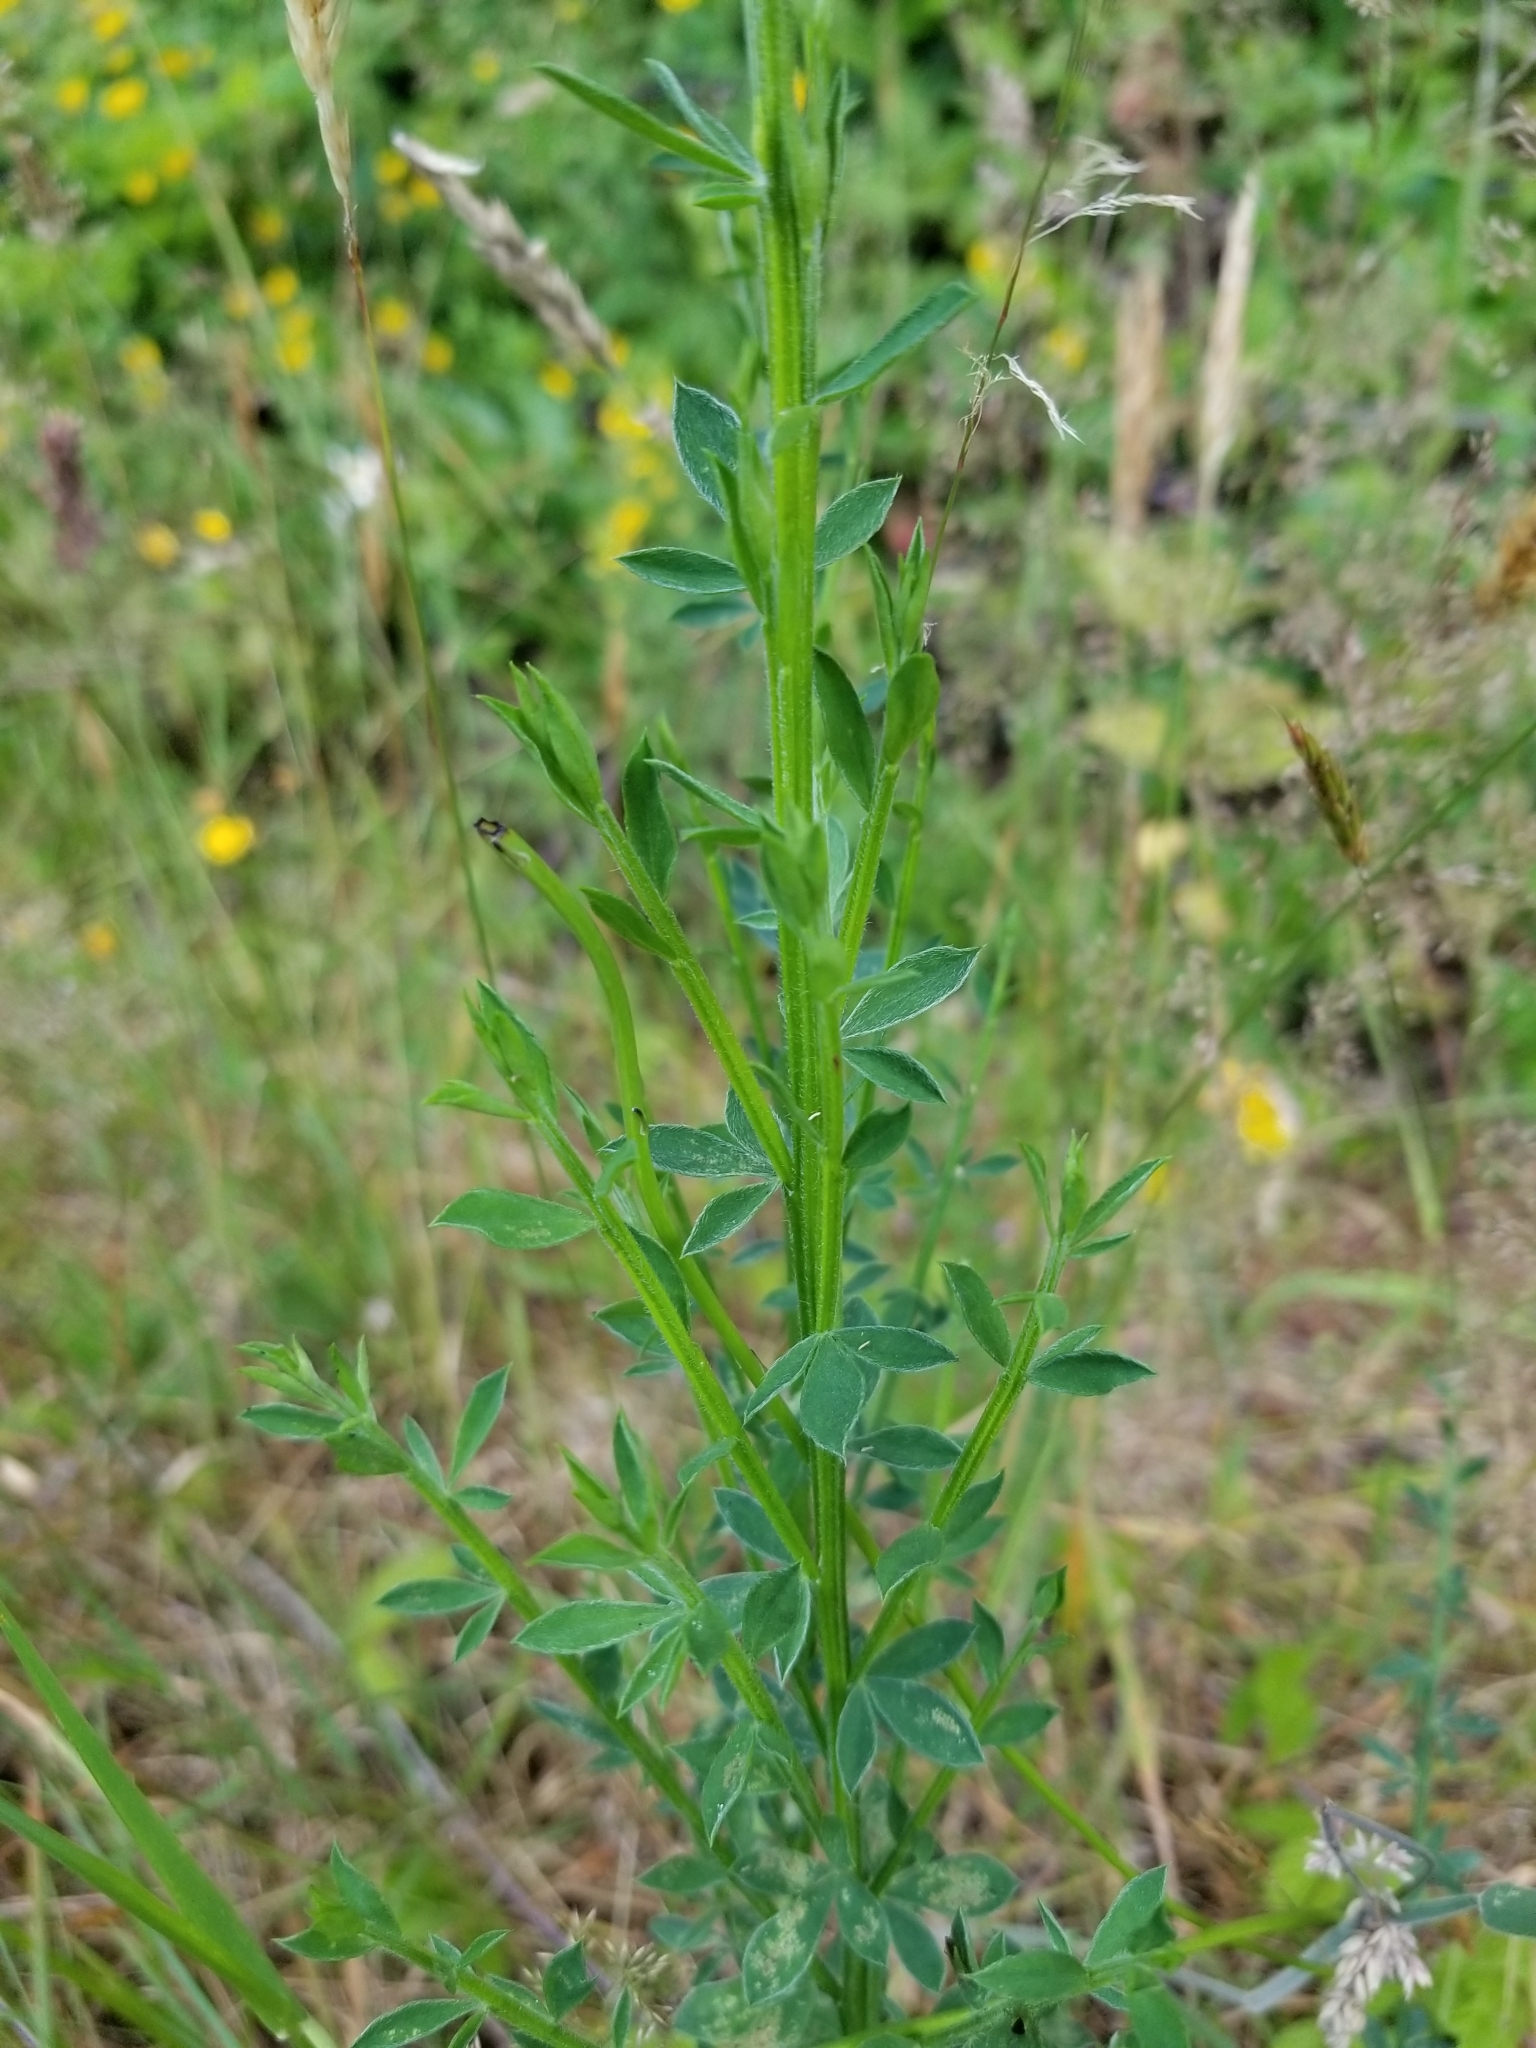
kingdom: Plantae
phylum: Tracheophyta
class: Magnoliopsida
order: Fabales
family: Fabaceae
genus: Cytisus
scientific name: Cytisus scoparius
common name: Scotch broom
